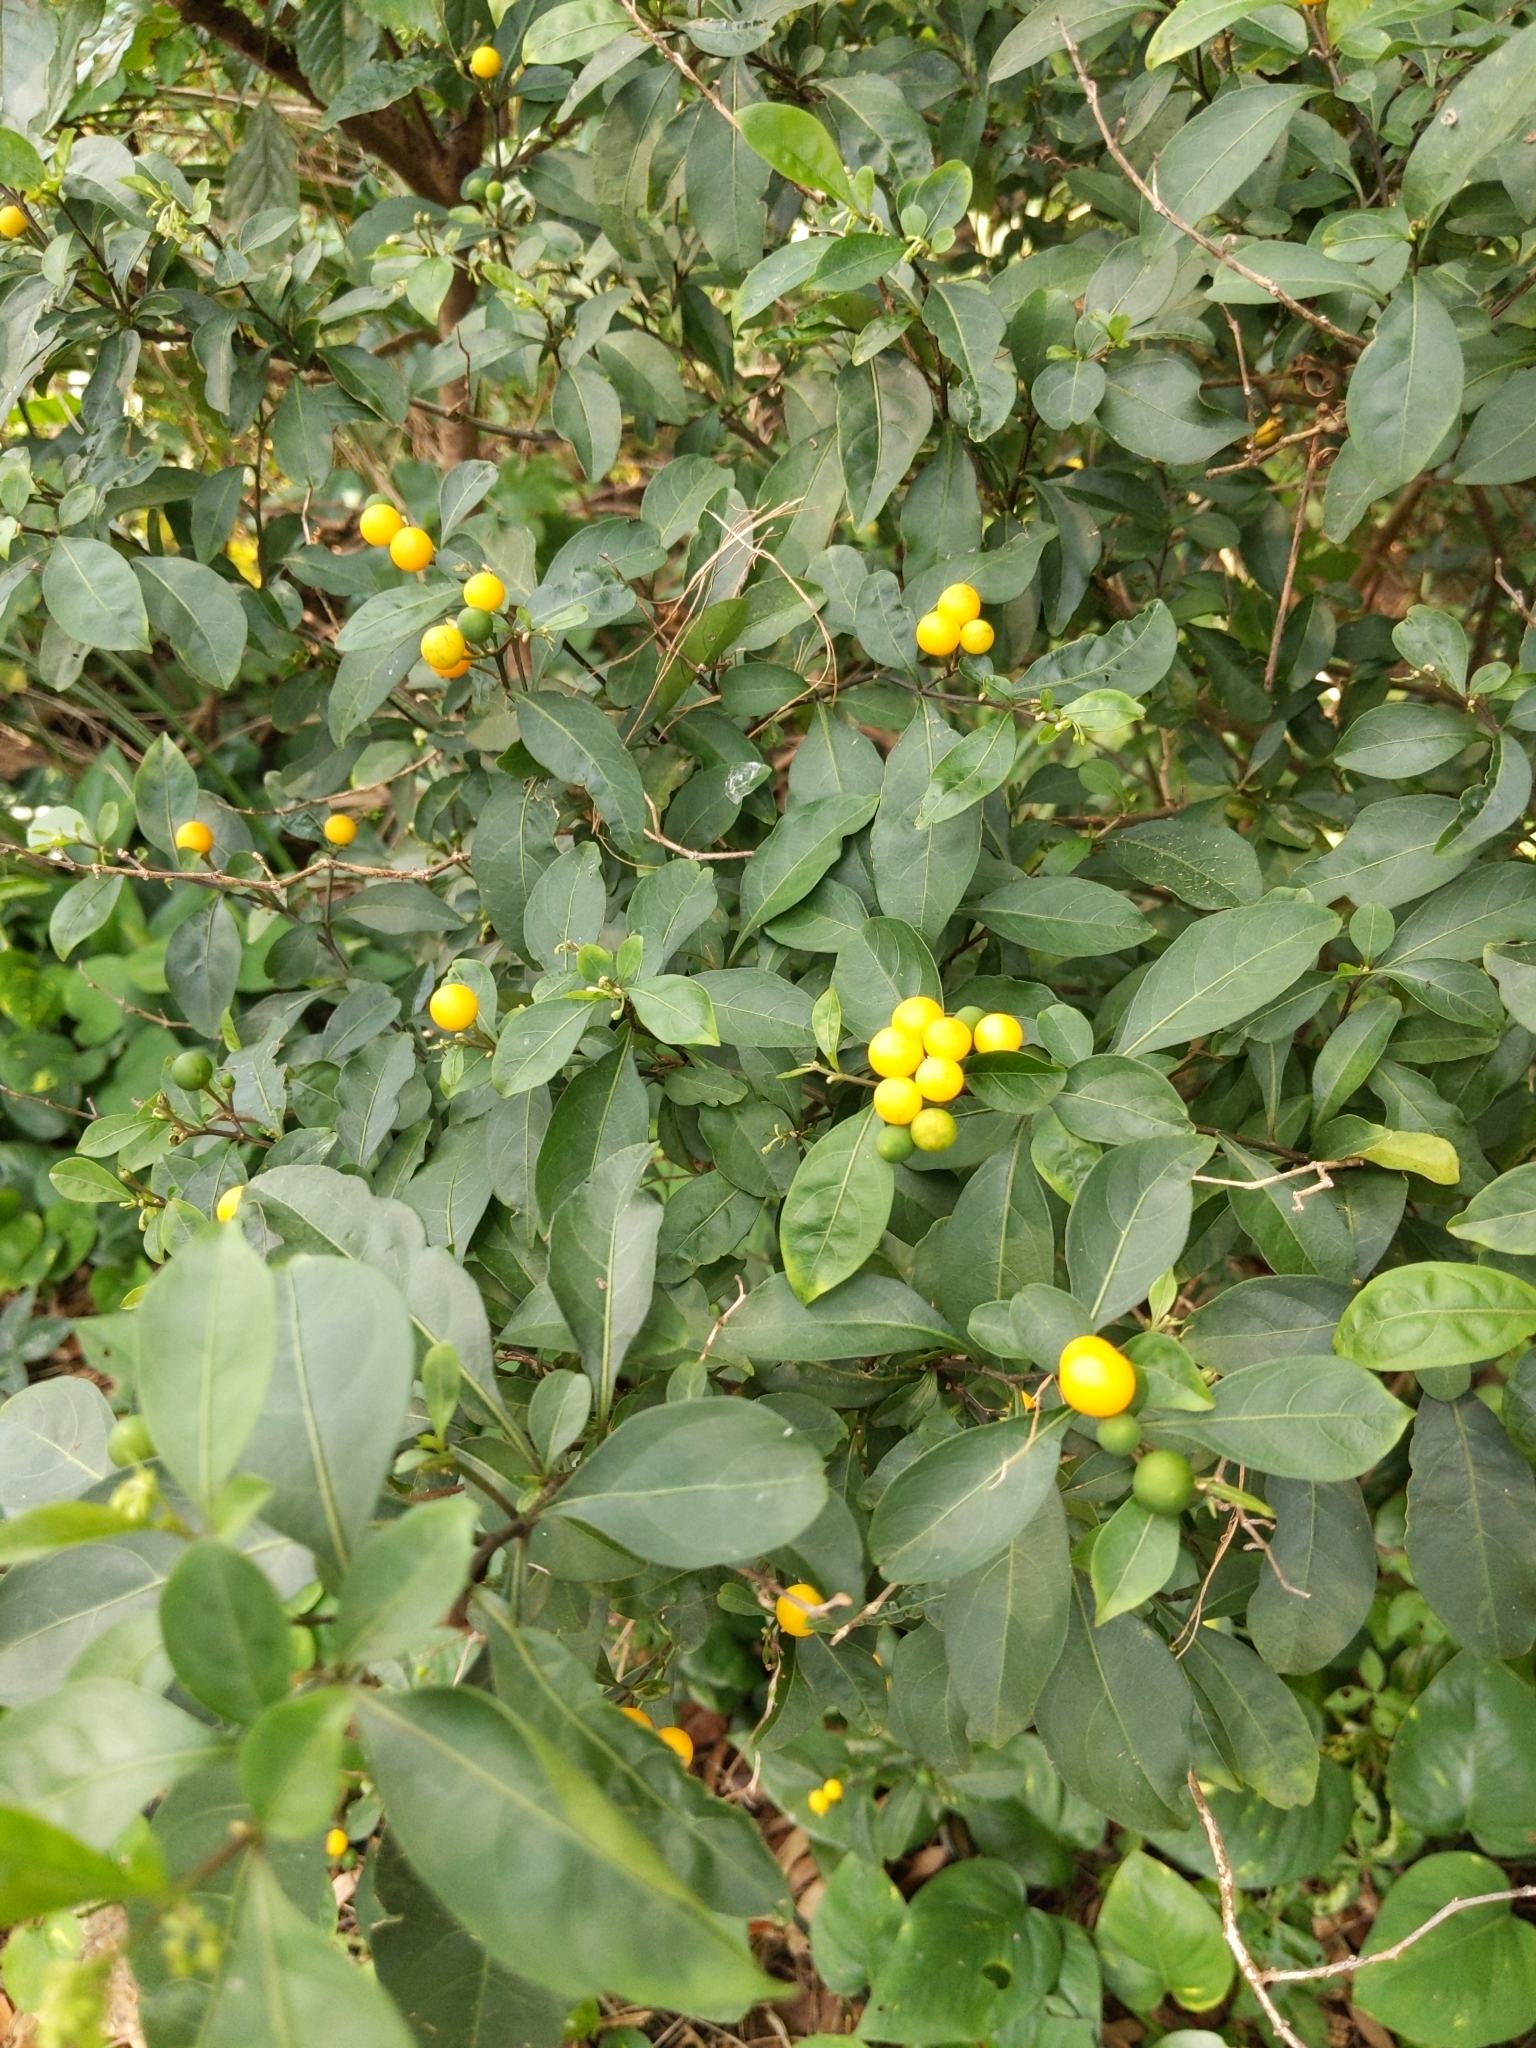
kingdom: Plantae
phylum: Tracheophyta
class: Magnoliopsida
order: Solanales
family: Solanaceae
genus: Solanum
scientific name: Solanum diphyllum
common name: Twoleaf nightshade
